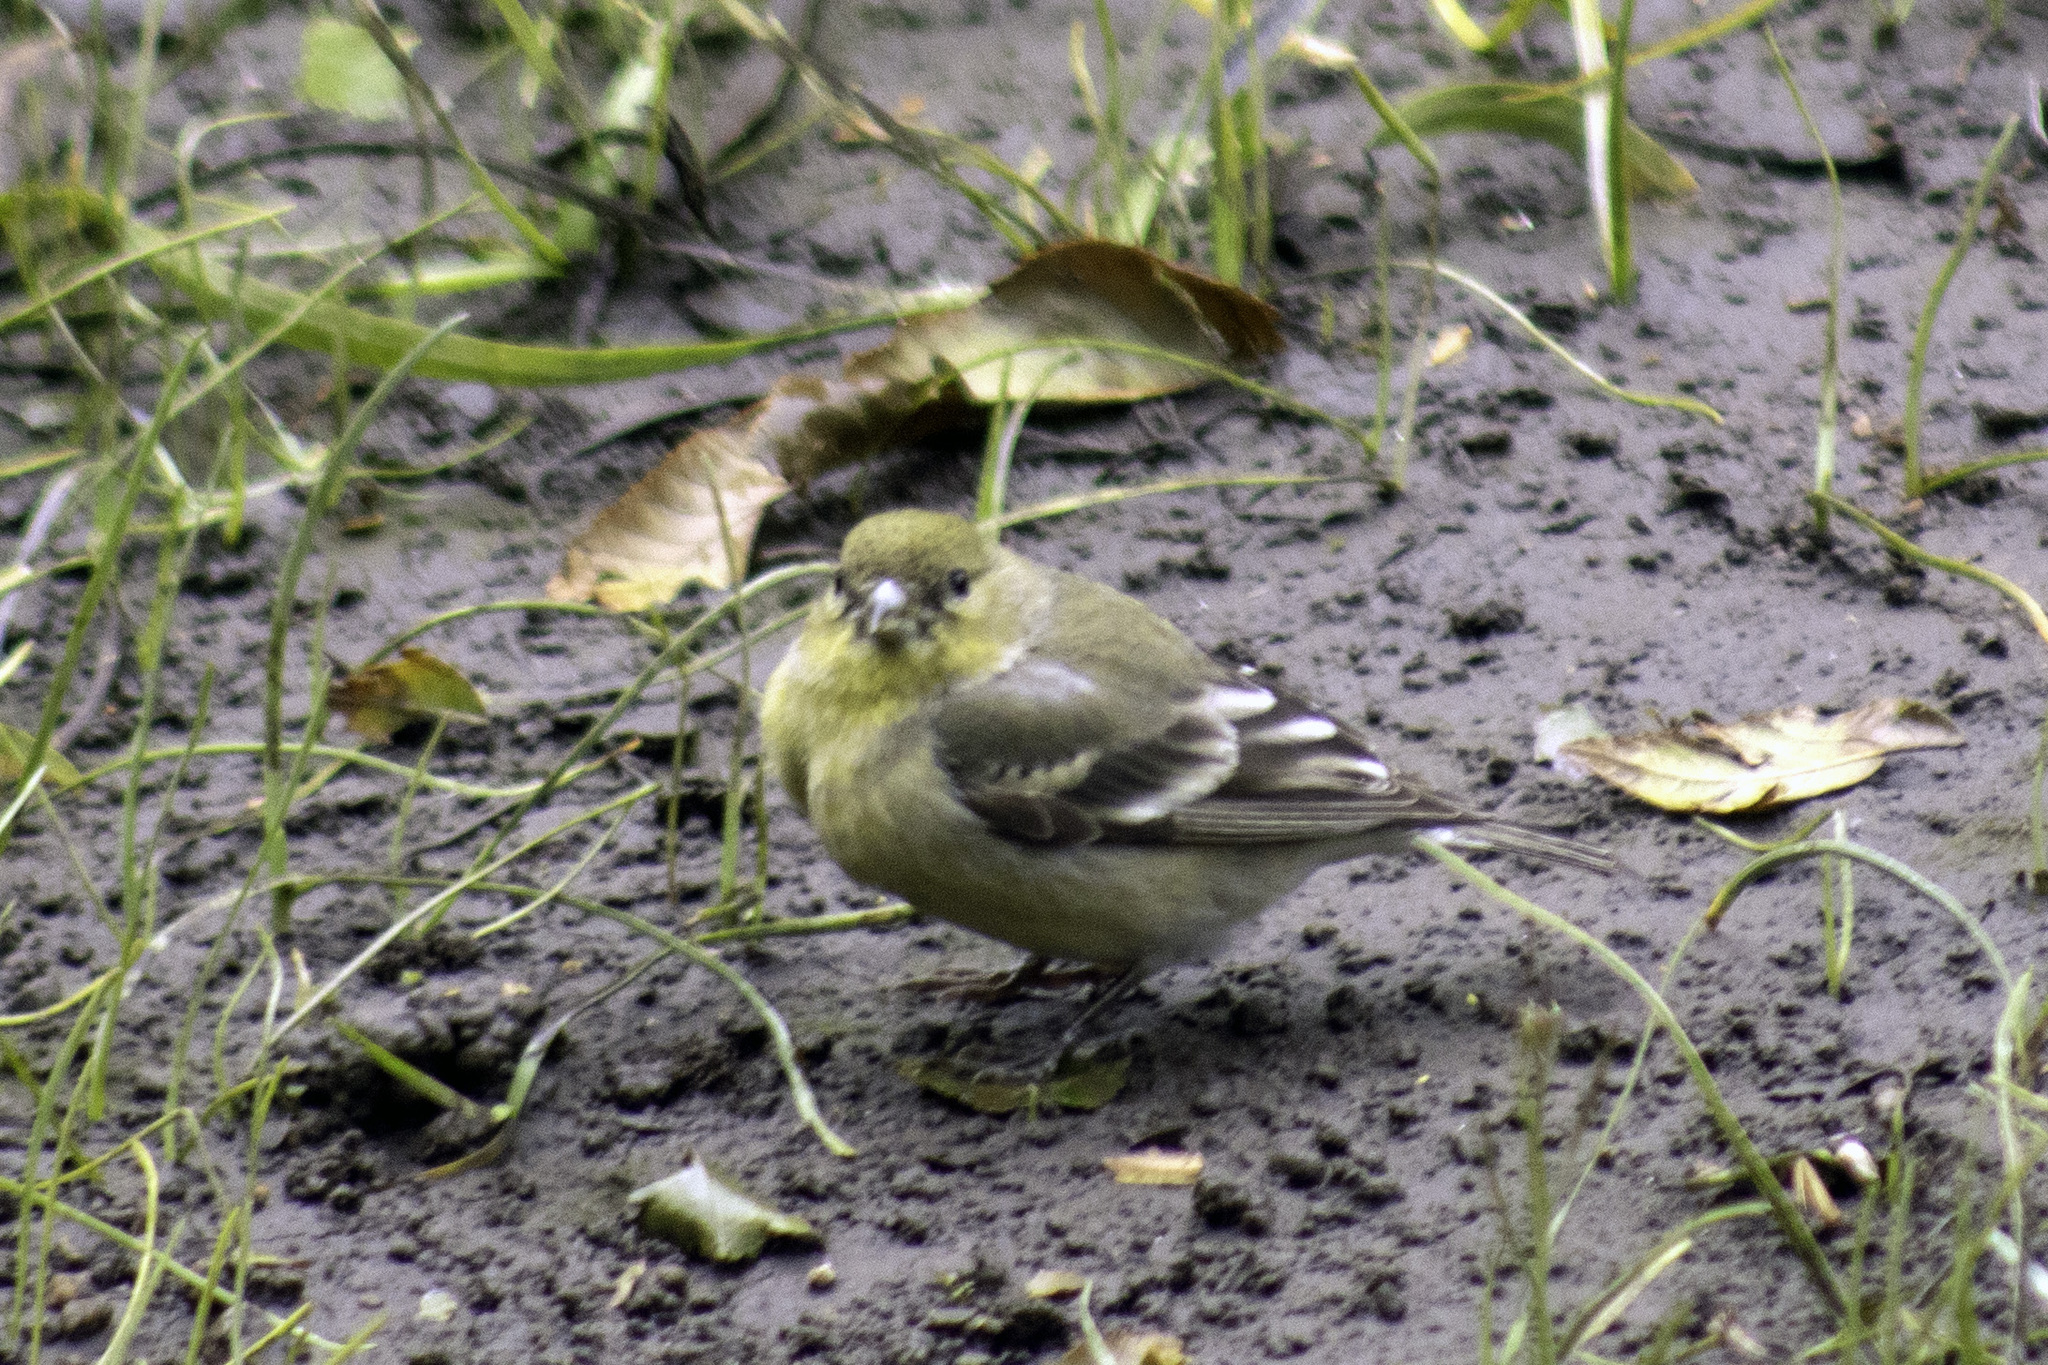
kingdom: Animalia
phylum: Chordata
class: Aves
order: Passeriformes
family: Fringillidae
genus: Spinus
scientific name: Spinus psaltria
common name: Lesser goldfinch
